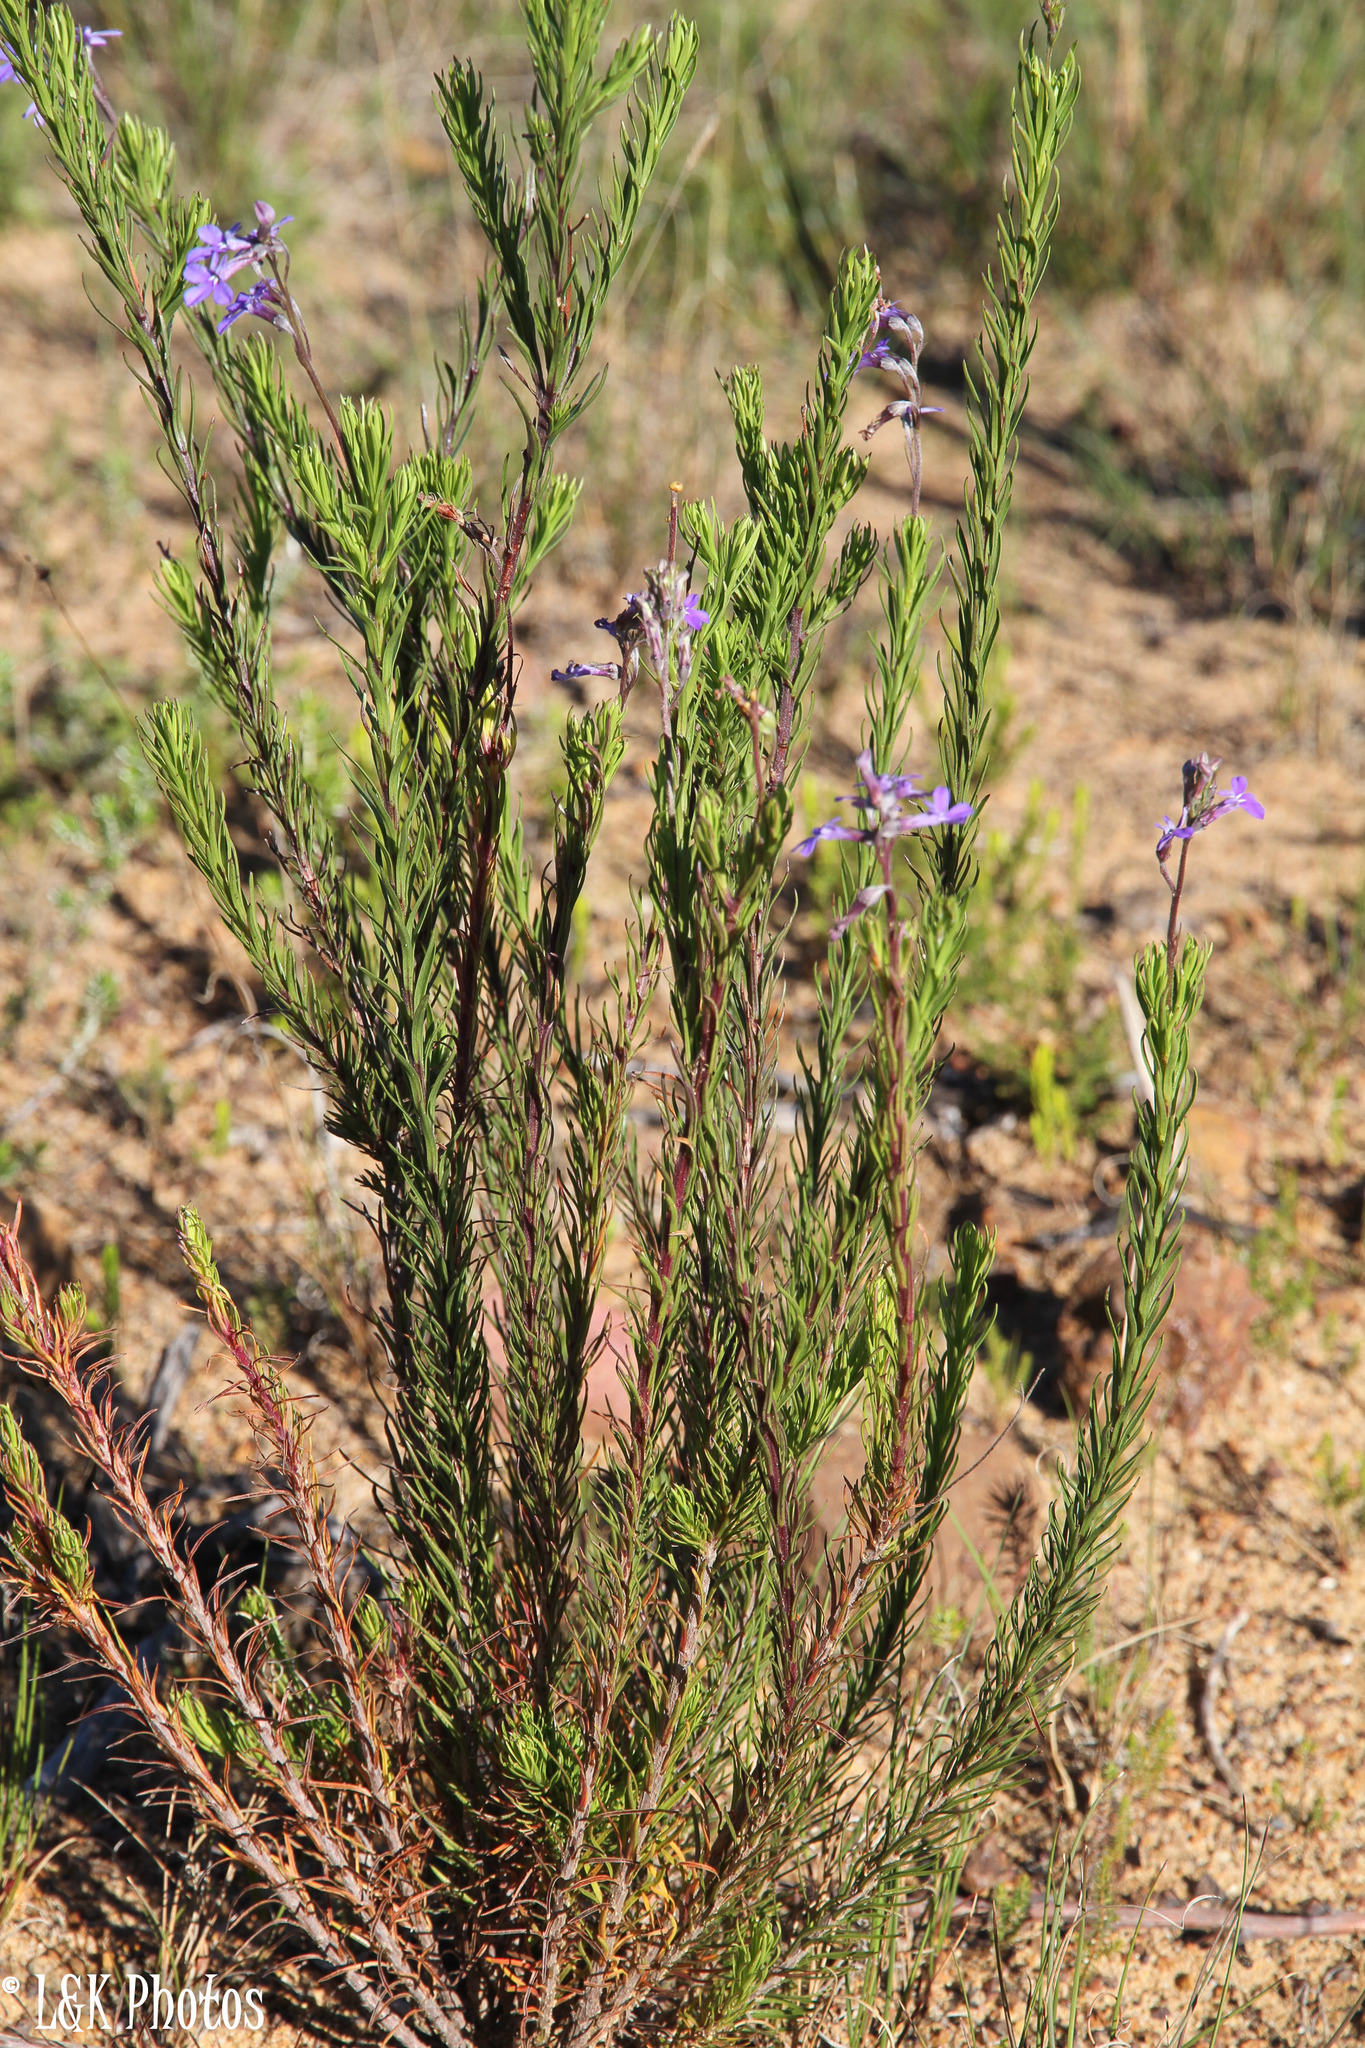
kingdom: Plantae
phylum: Tracheophyta
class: Magnoliopsida
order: Asterales
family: Campanulaceae
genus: Lobelia
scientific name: Lobelia pinifolia
